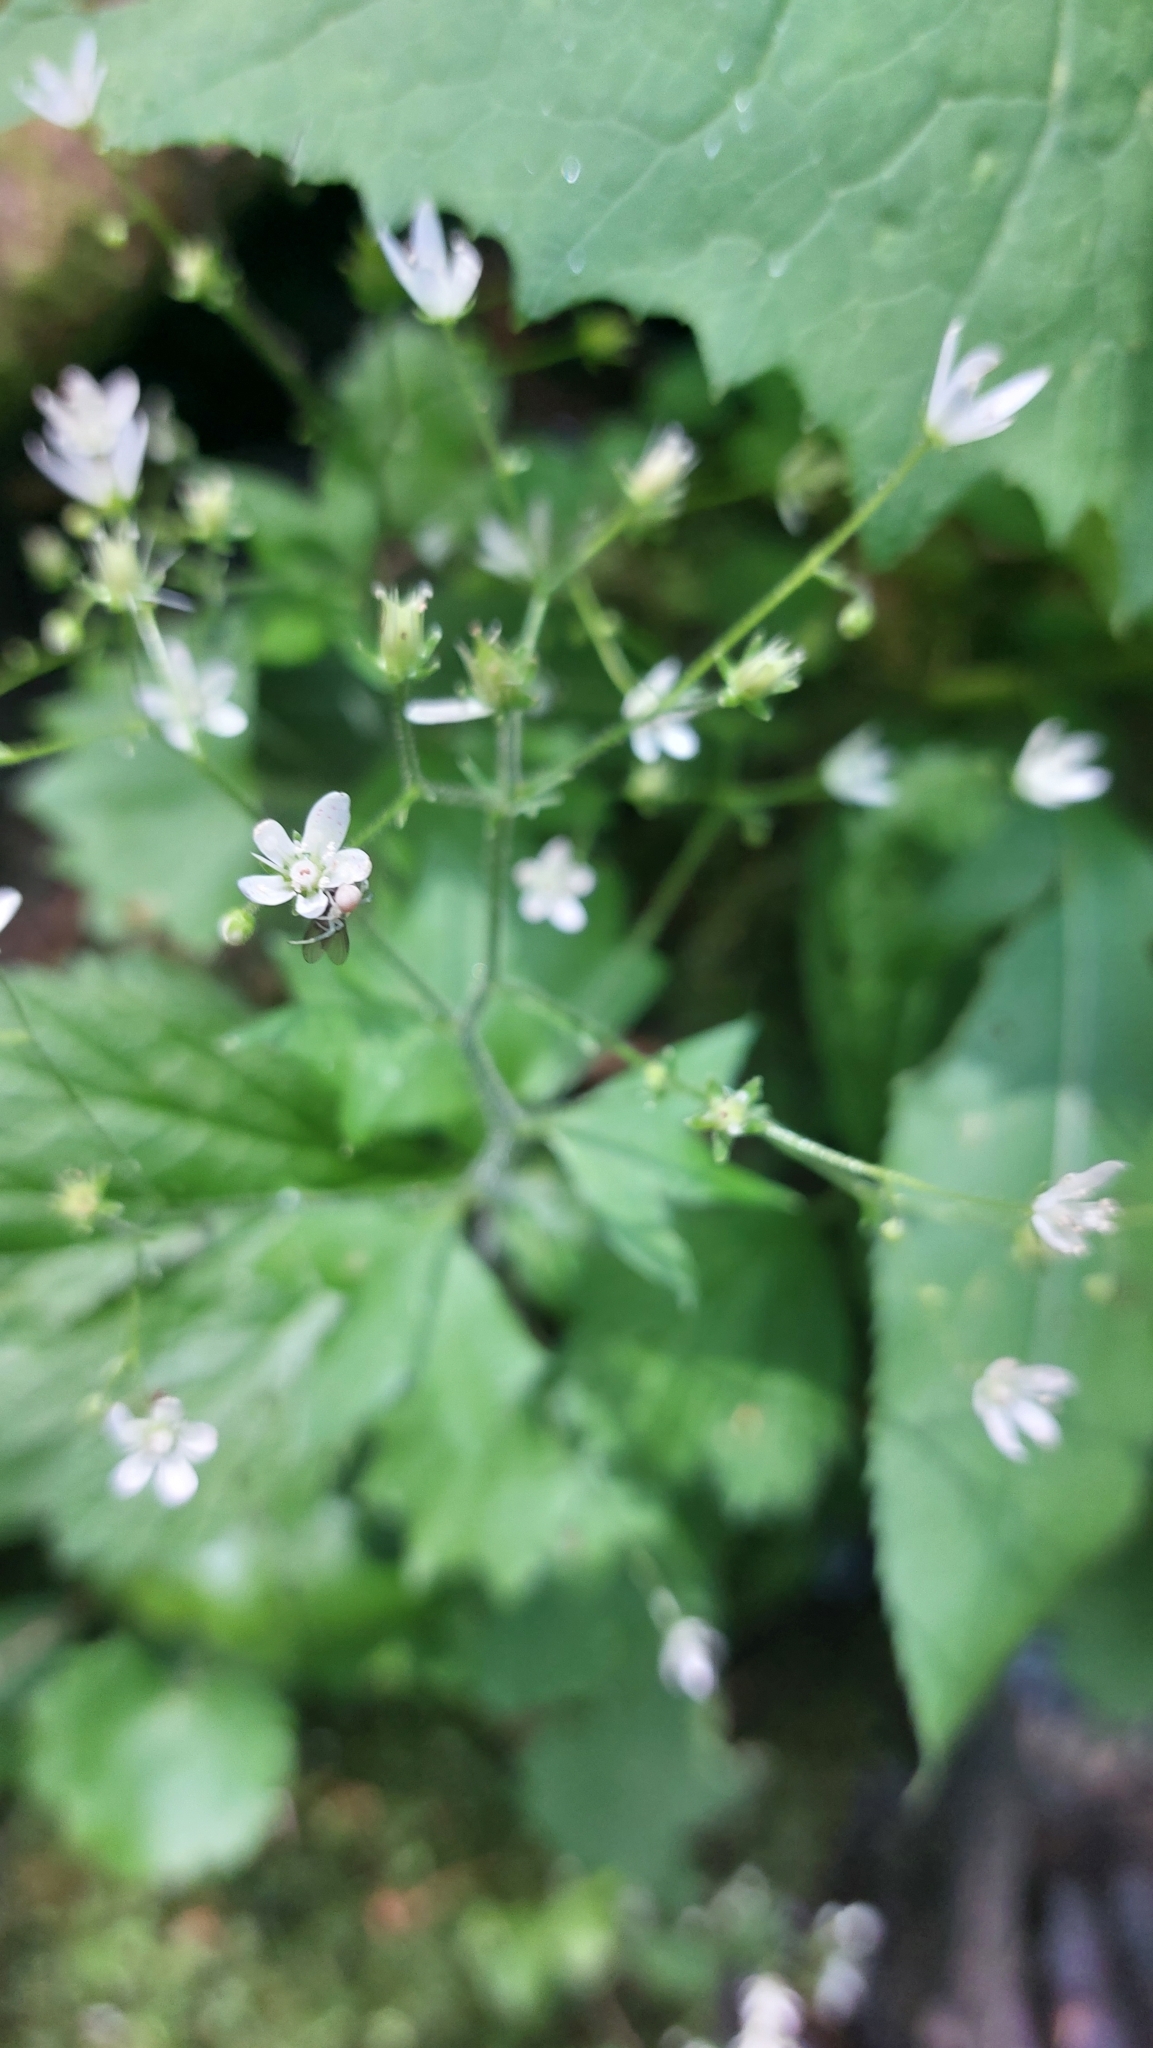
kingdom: Plantae
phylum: Tracheophyta
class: Magnoliopsida
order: Saxifragales
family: Saxifragaceae
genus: Saxifraga
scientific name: Saxifraga rotundifolia
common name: Round-leaved saxifrage
